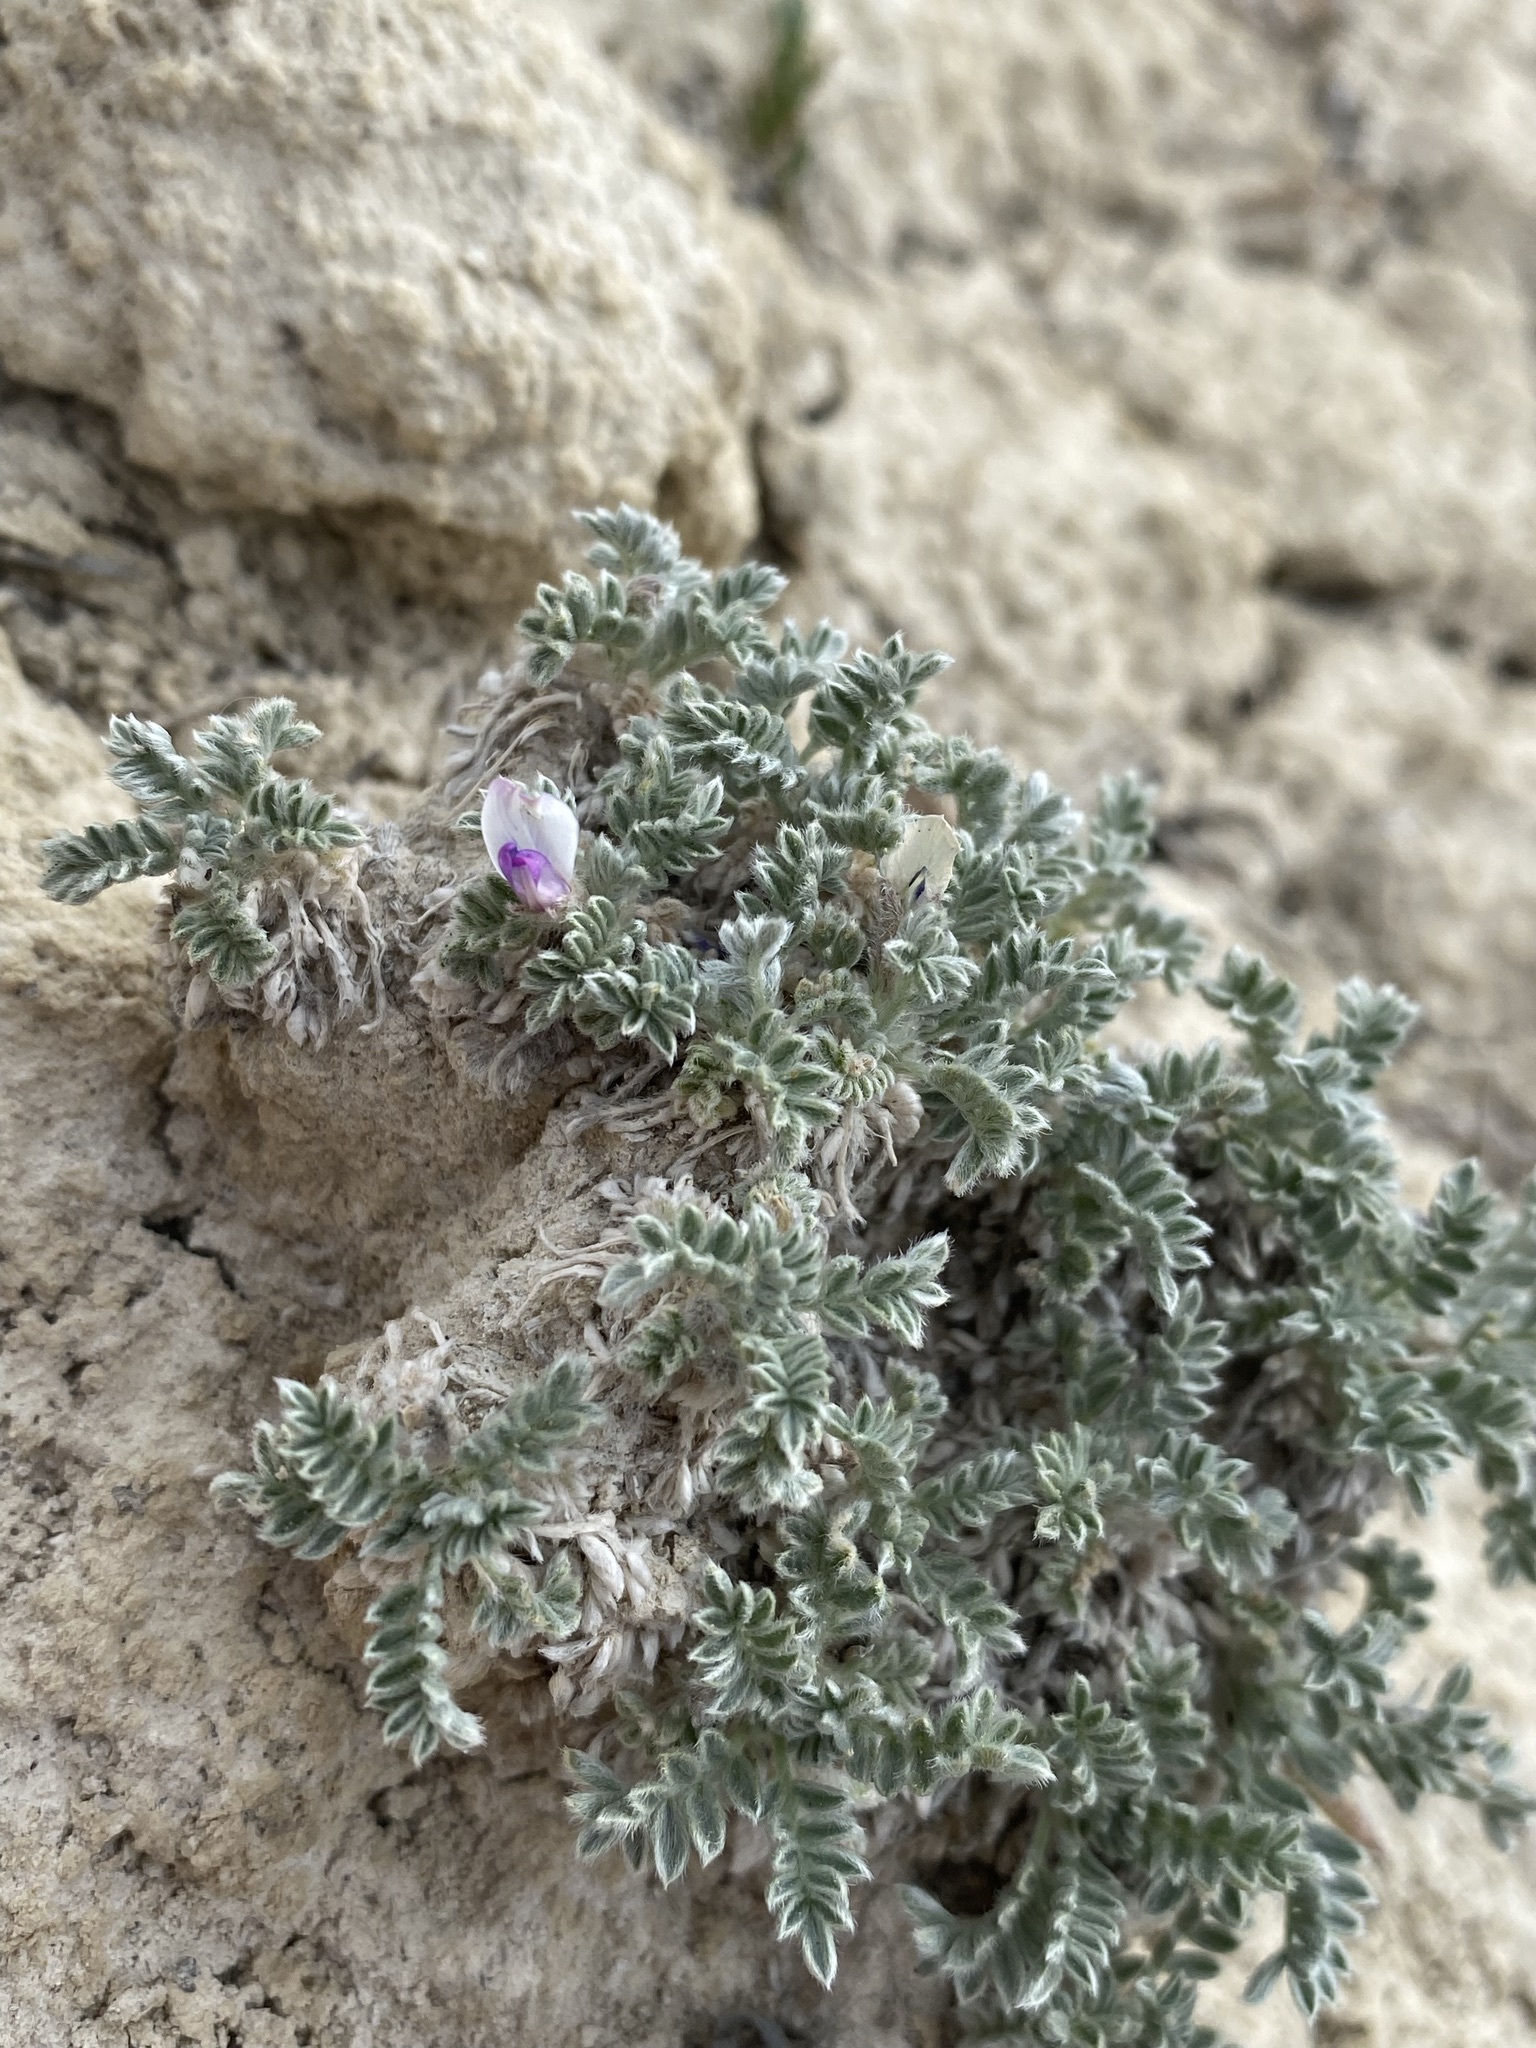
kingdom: Plantae
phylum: Tracheophyta
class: Magnoliopsida
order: Fabales
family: Fabaceae
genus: Oxytropis
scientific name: Oxytropis oreophila
